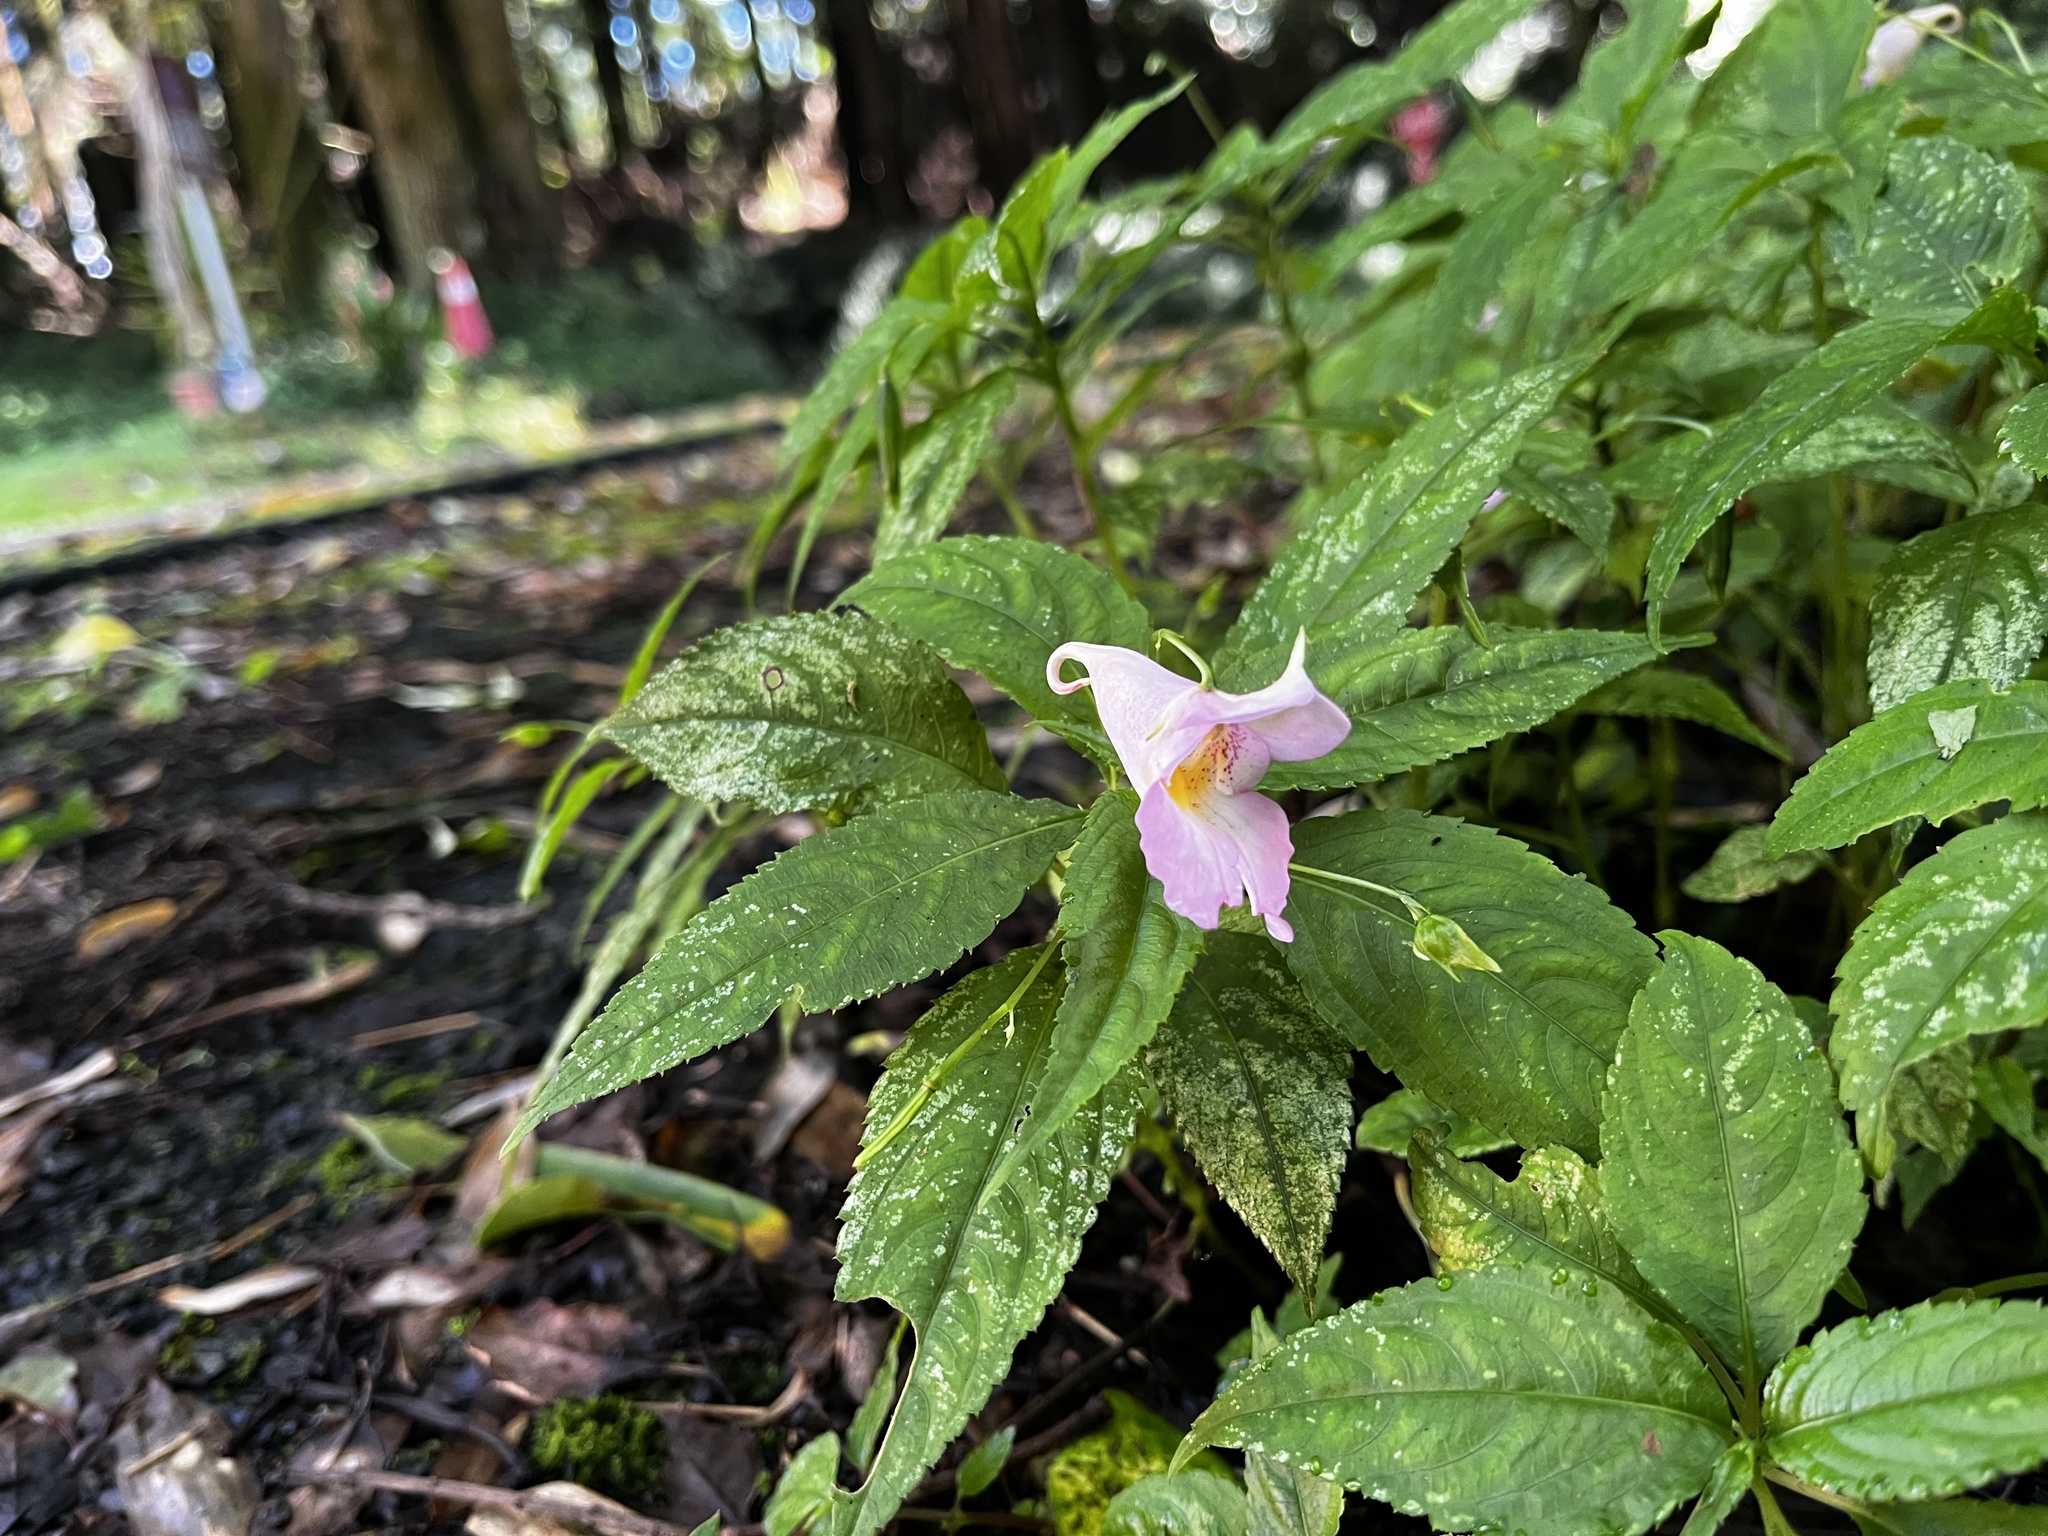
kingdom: Plantae
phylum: Tracheophyta
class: Magnoliopsida
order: Ericales
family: Balsaminaceae
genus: Impatiens
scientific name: Impatiens uniflora
